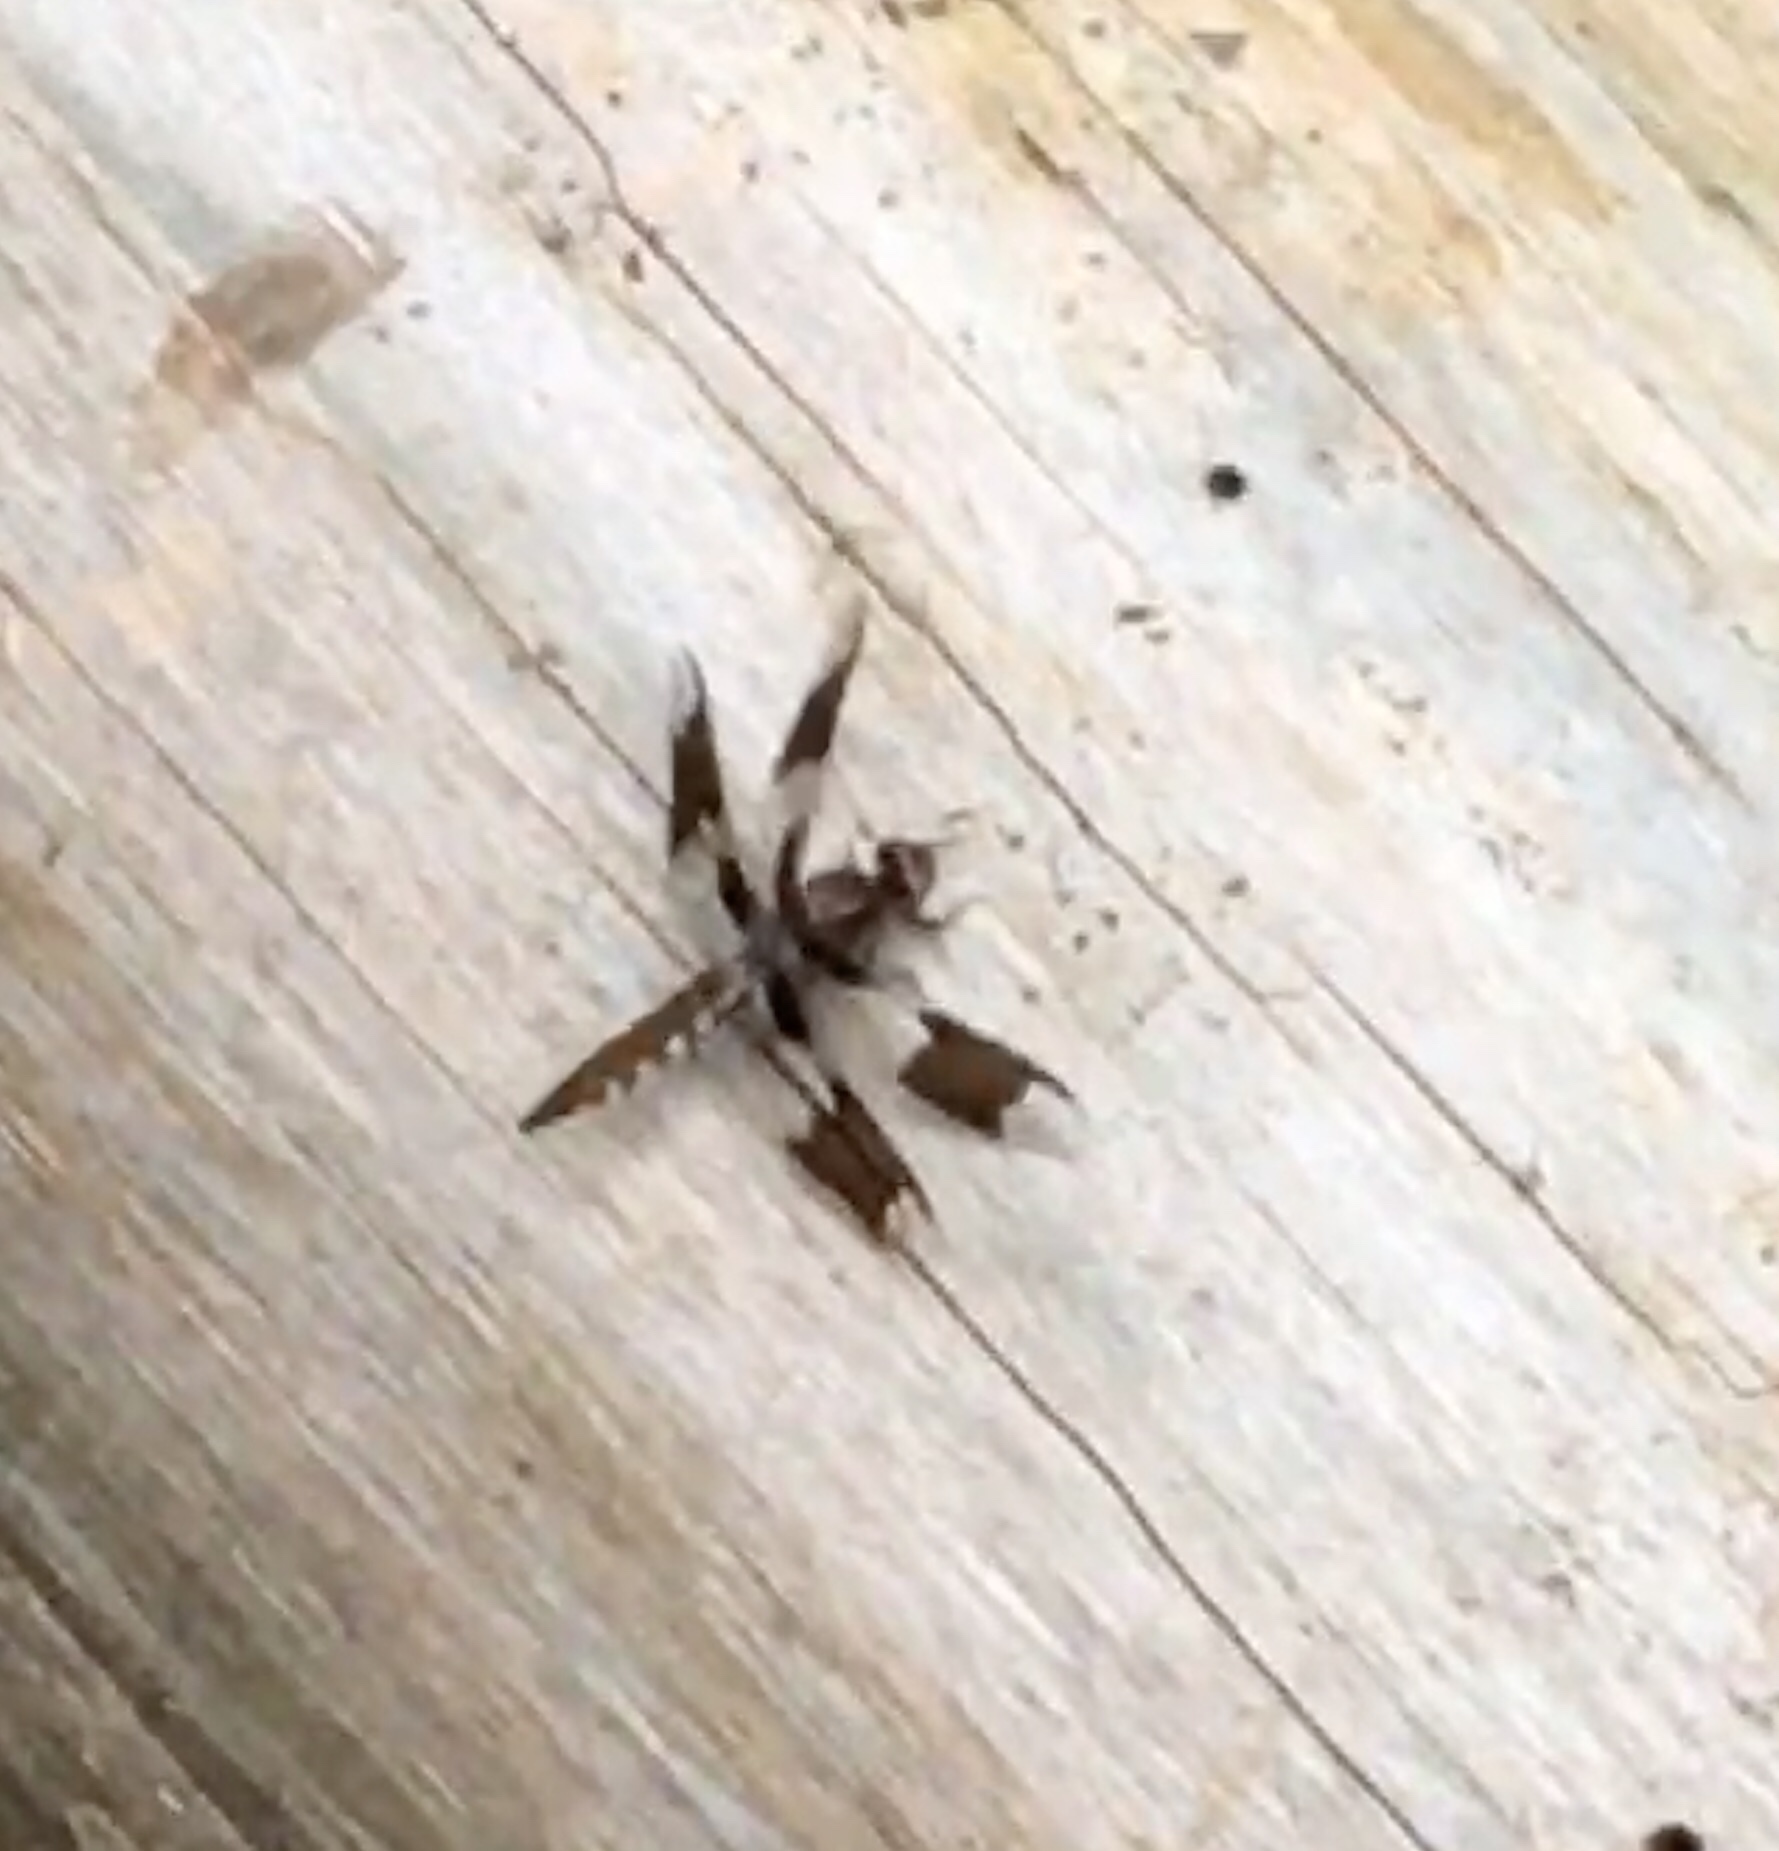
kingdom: Animalia
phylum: Arthropoda
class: Insecta
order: Odonata
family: Libellulidae
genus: Plathemis
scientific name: Plathemis lydia
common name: Common whitetail
